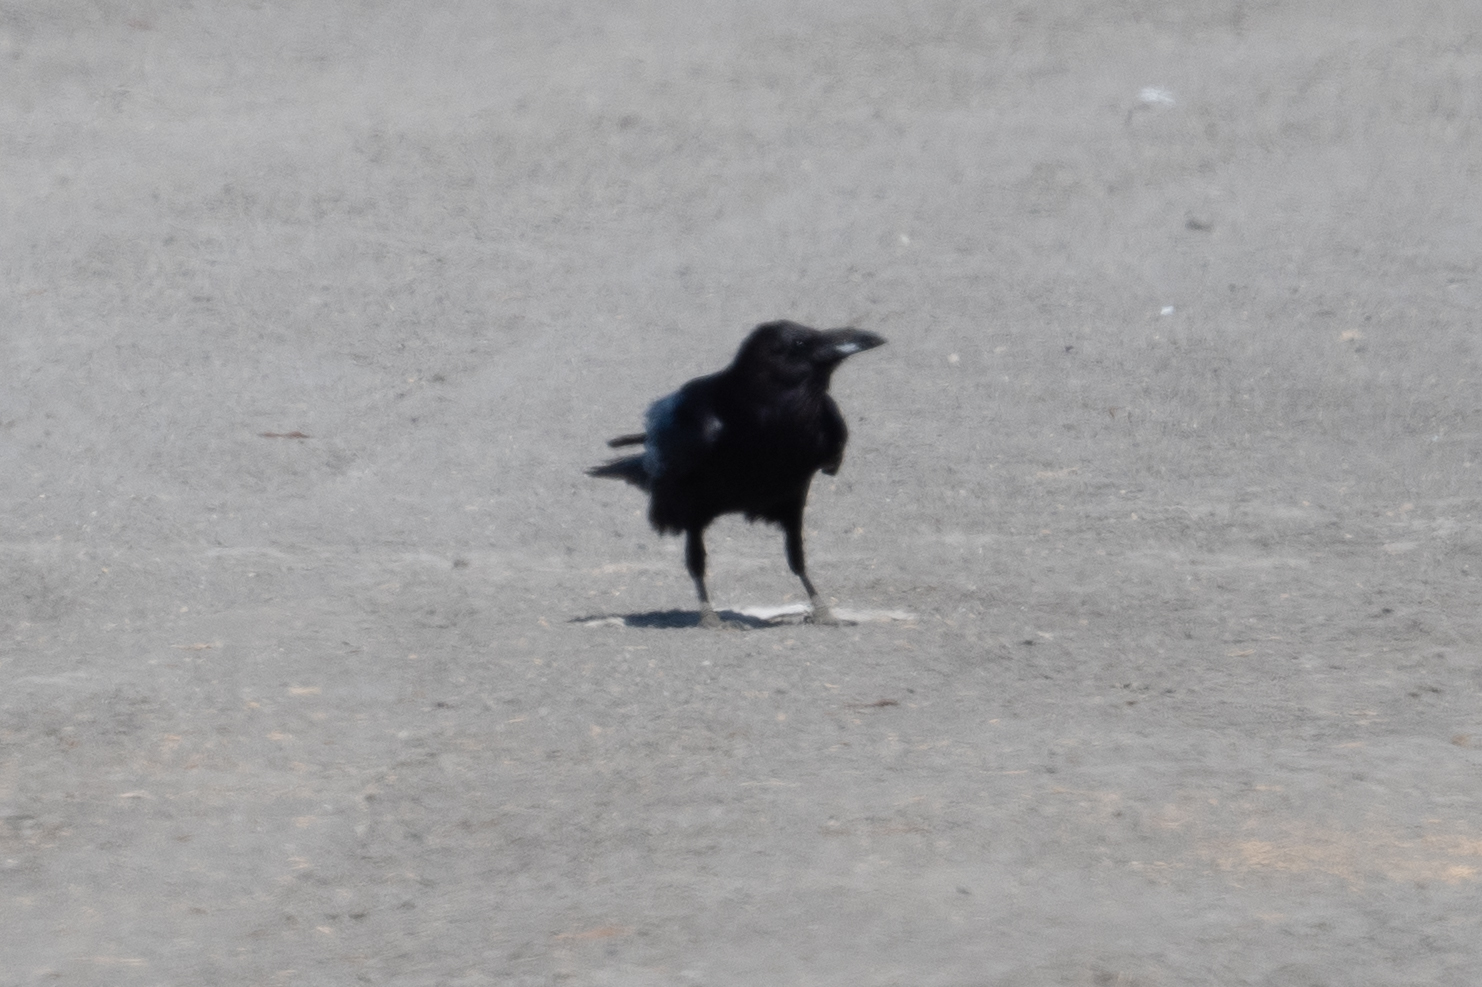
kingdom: Animalia
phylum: Chordata
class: Aves
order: Passeriformes
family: Corvidae
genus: Corvus
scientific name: Corvus brachyrhynchos
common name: American crow
